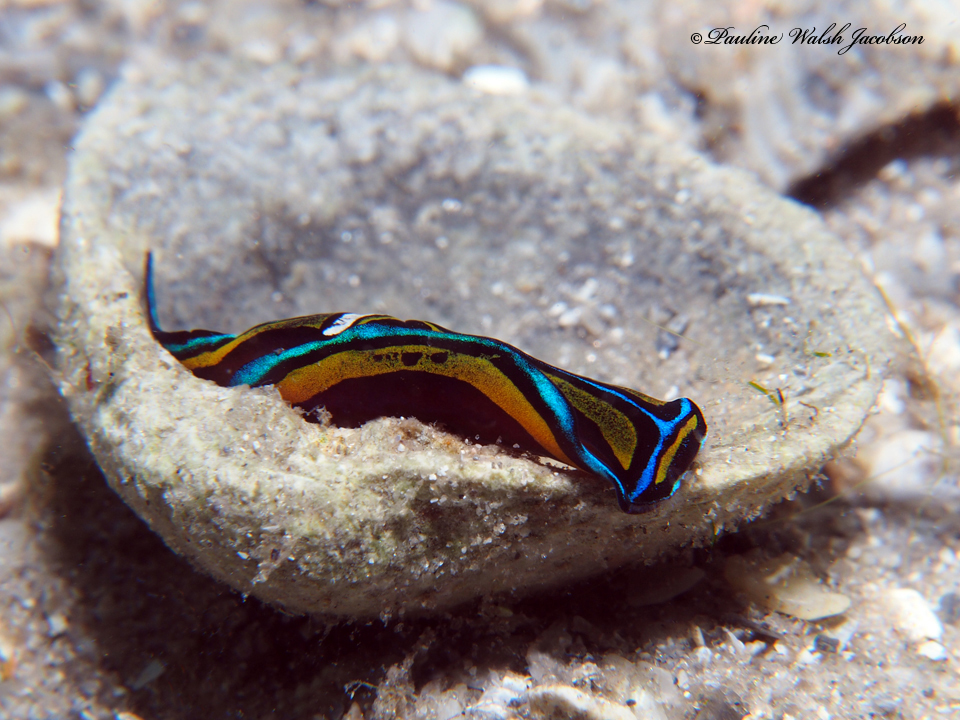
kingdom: Animalia
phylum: Mollusca
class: Gastropoda
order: Cephalaspidea
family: Aglajidae
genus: Chelidonura
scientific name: Chelidonura hirundinina
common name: Leech headshield slug
